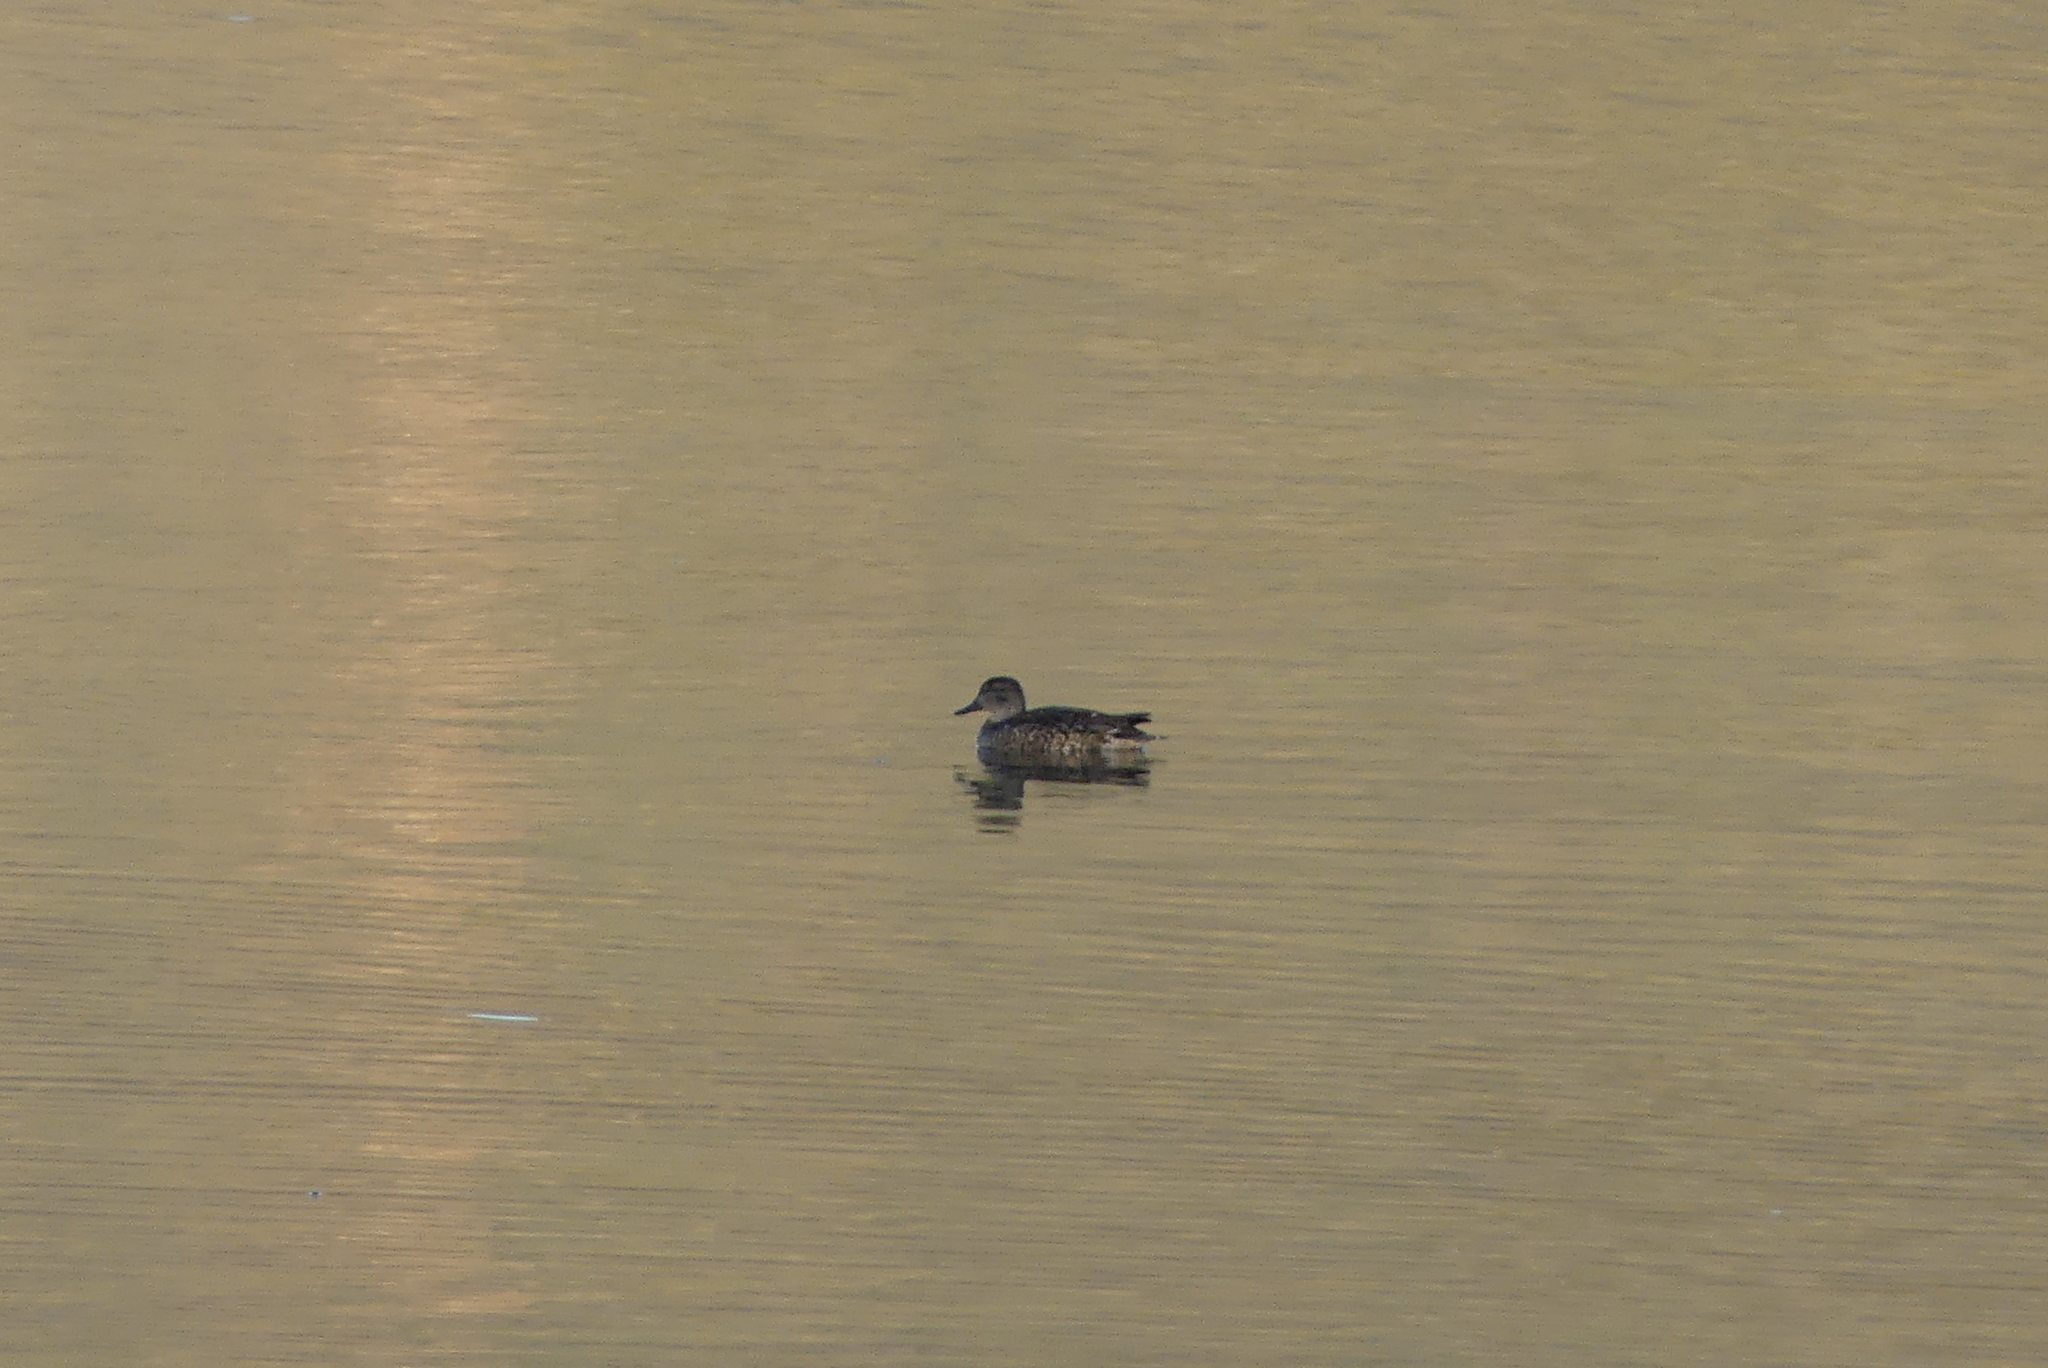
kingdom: Animalia
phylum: Chordata
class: Aves
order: Anseriformes
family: Anatidae
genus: Anas
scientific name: Anas crecca
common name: Eurasian teal
